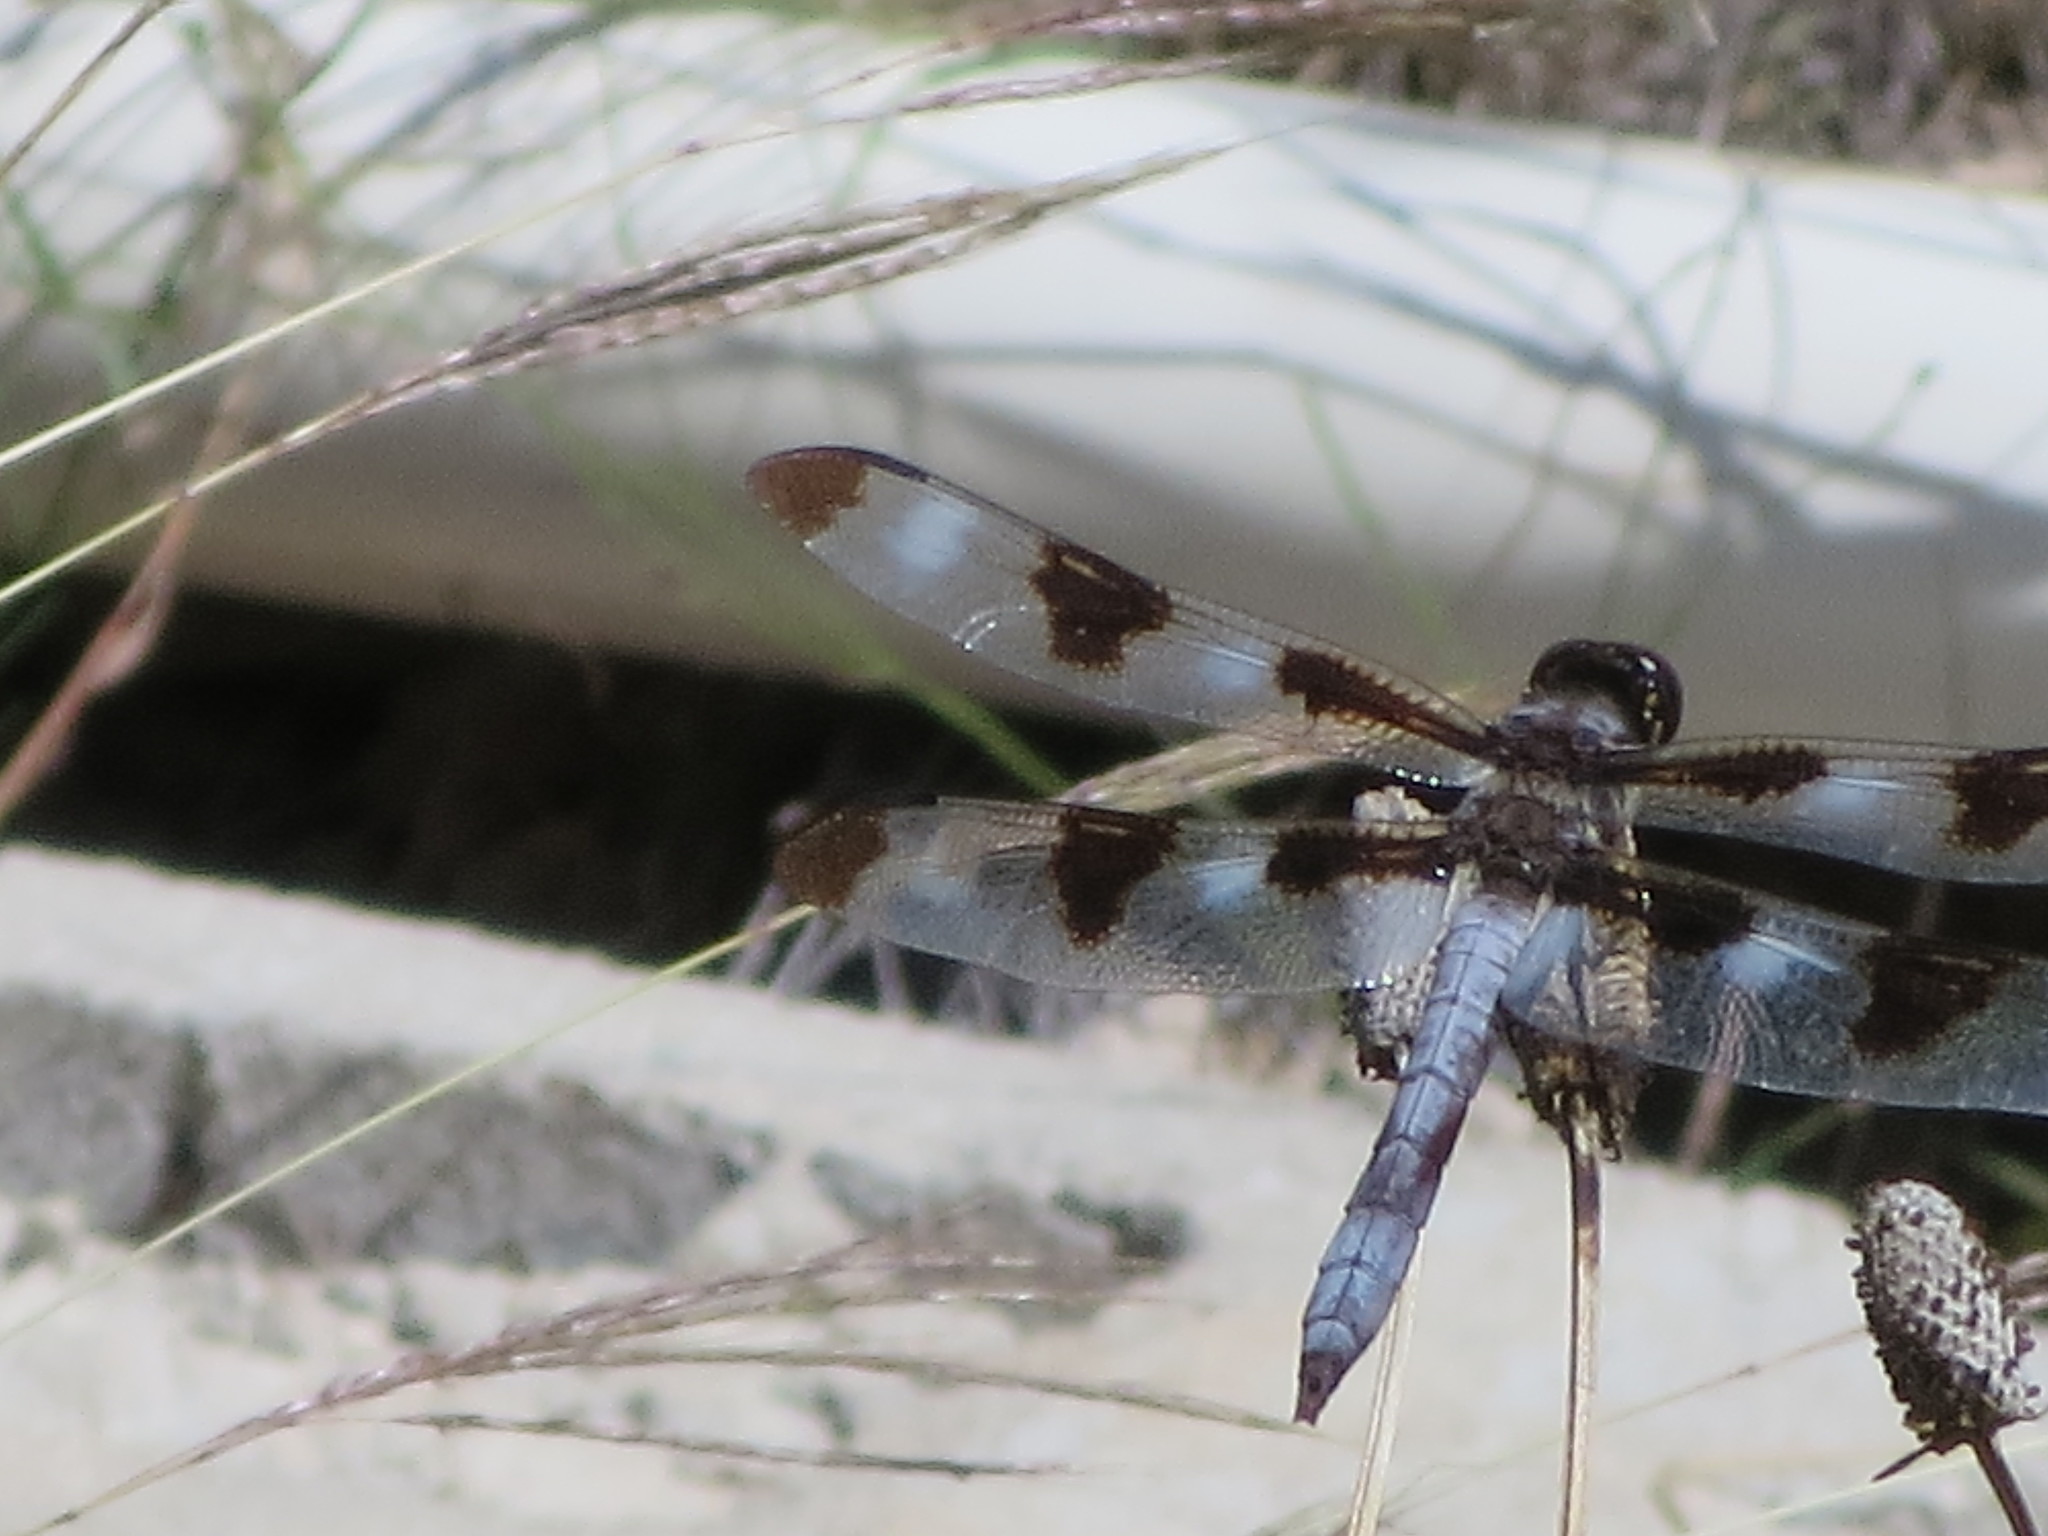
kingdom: Animalia
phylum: Arthropoda
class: Insecta
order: Odonata
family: Libellulidae
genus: Libellula
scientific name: Libellula pulchella
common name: Twelve-spotted skimmer
